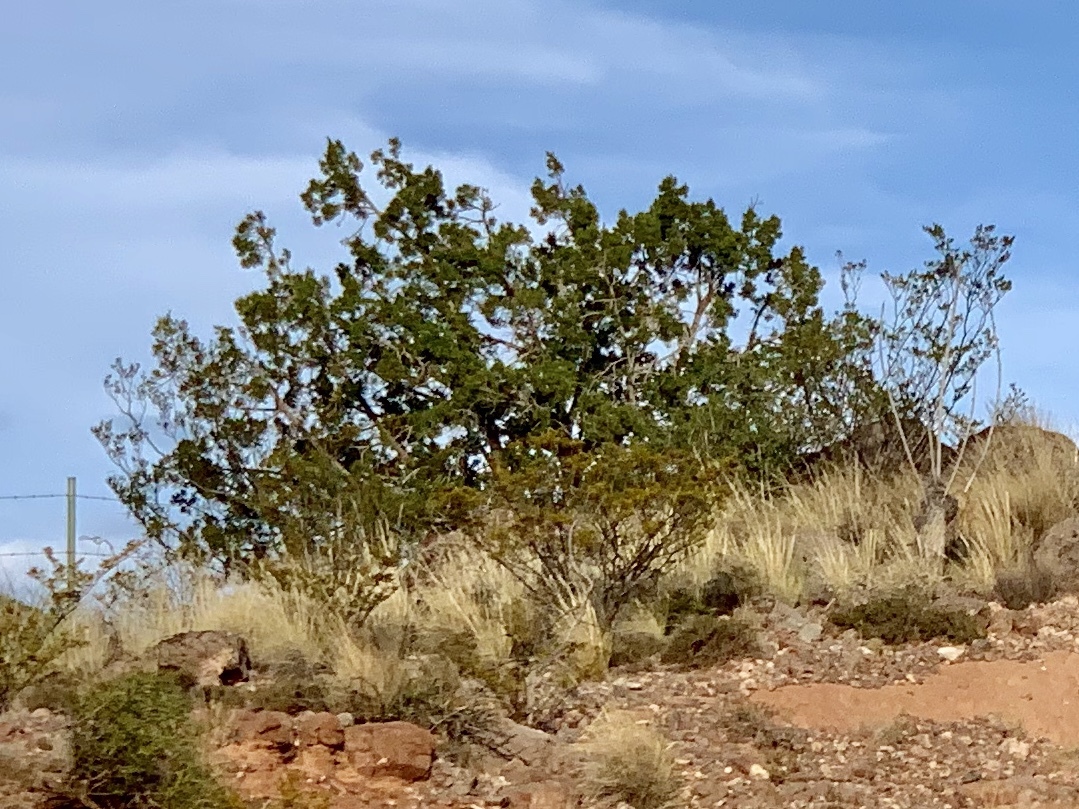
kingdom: Plantae
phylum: Tracheophyta
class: Magnoliopsida
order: Zygophyllales
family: Zygophyllaceae
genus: Larrea
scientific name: Larrea tridentata
